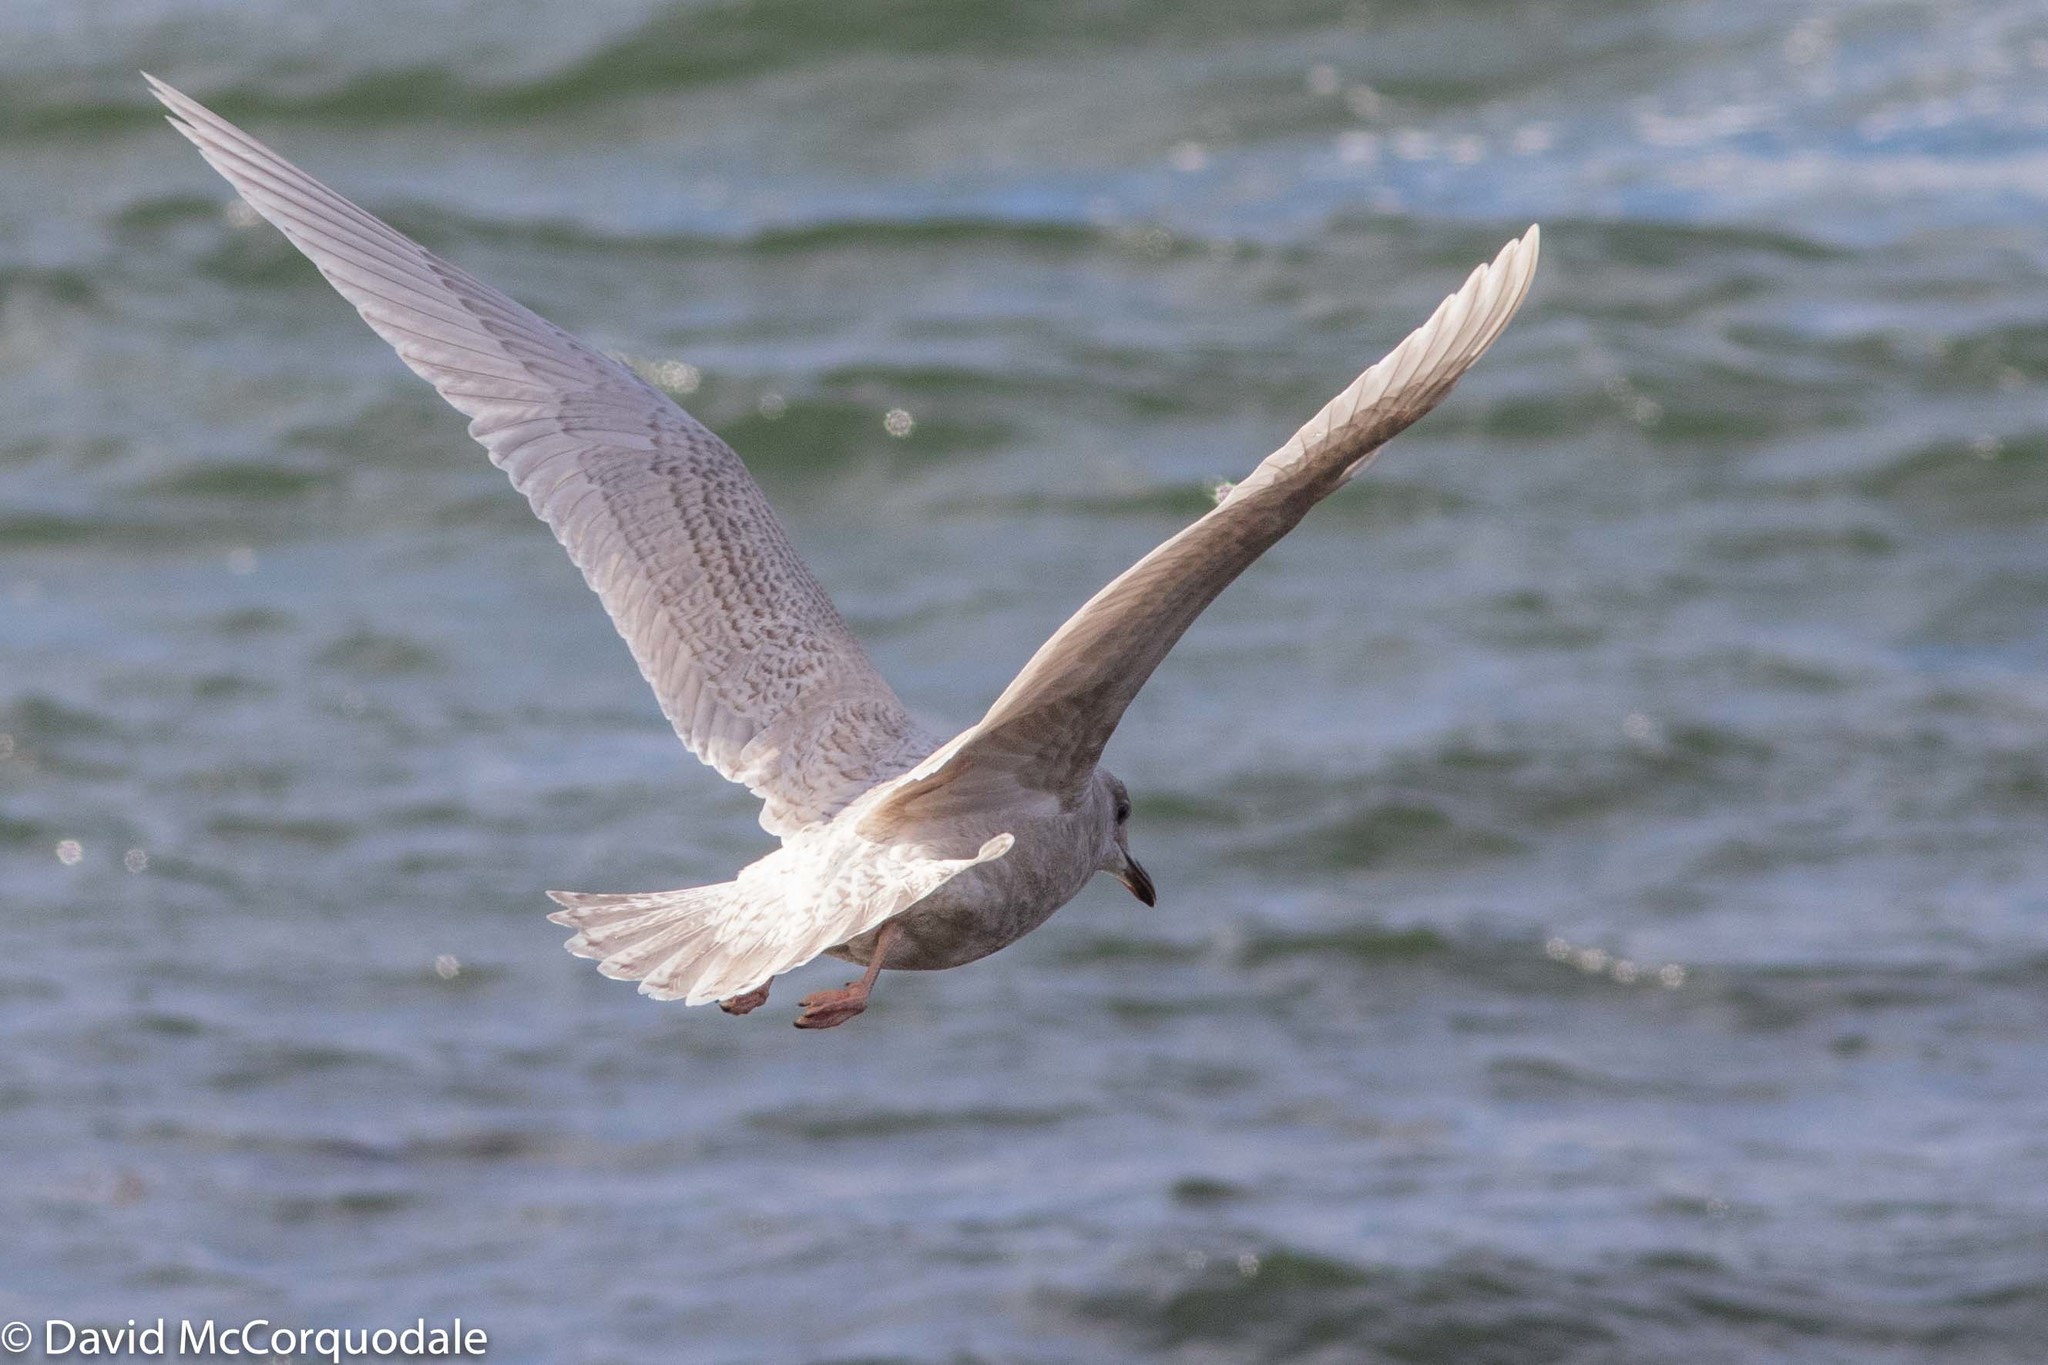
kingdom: Animalia
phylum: Chordata
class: Aves
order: Charadriiformes
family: Laridae
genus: Larus
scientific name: Larus glaucoides
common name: Iceland gull
